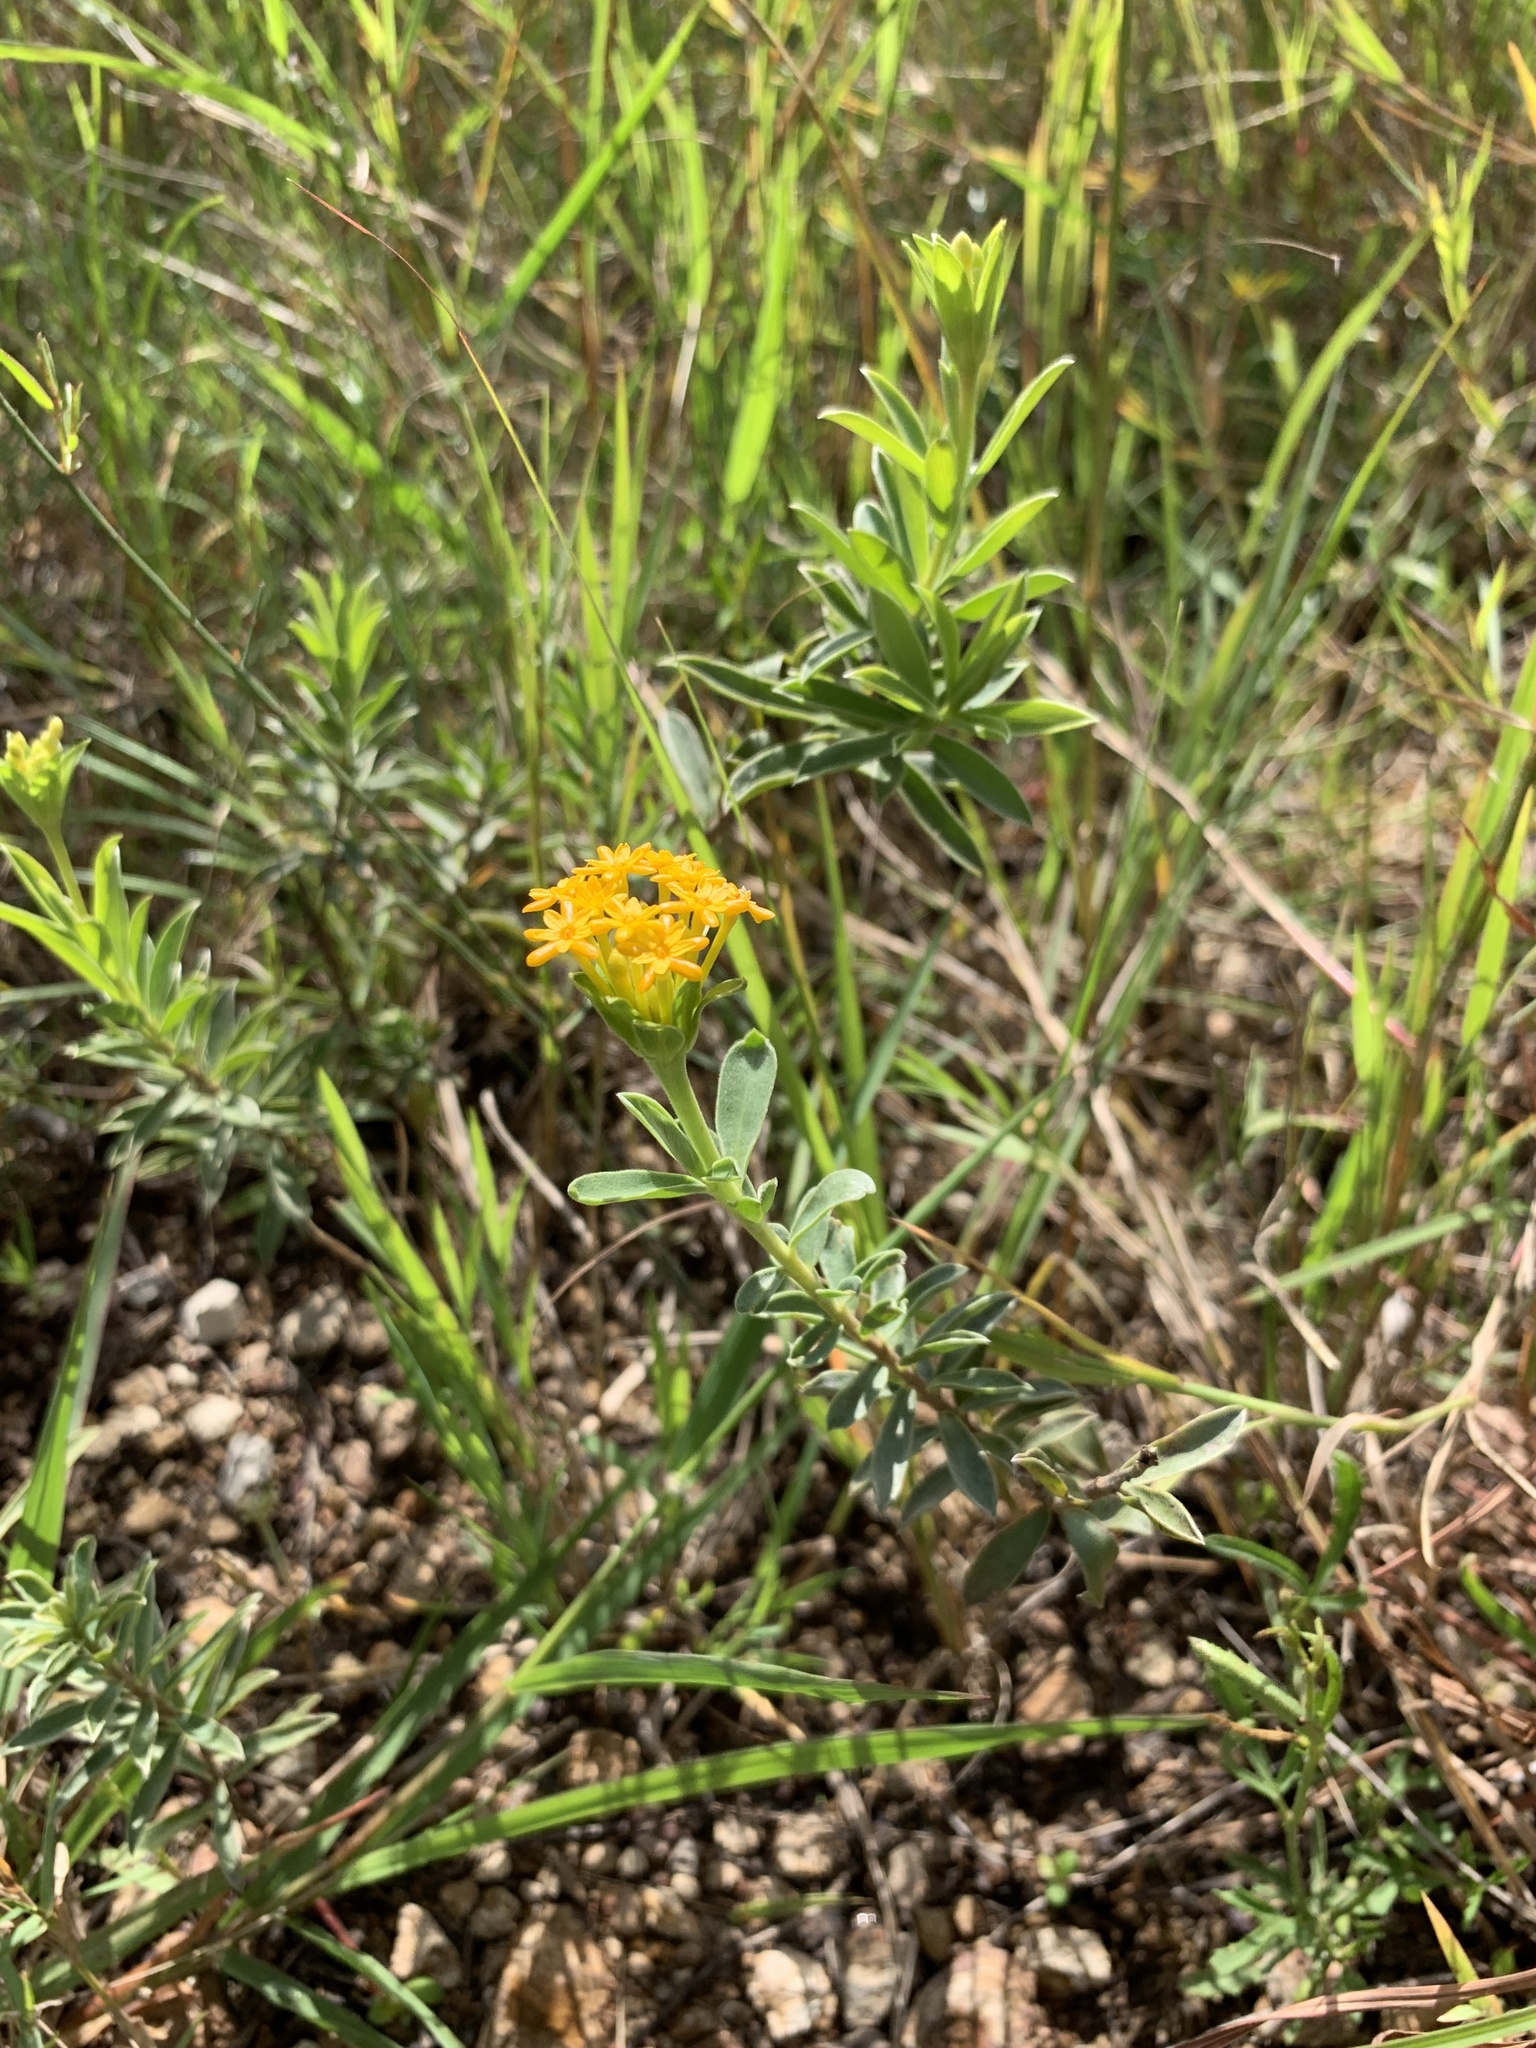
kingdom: Plantae
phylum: Tracheophyta
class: Magnoliopsida
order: Malvales
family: Thymelaeaceae
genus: Gnidia
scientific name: Gnidia capitata
